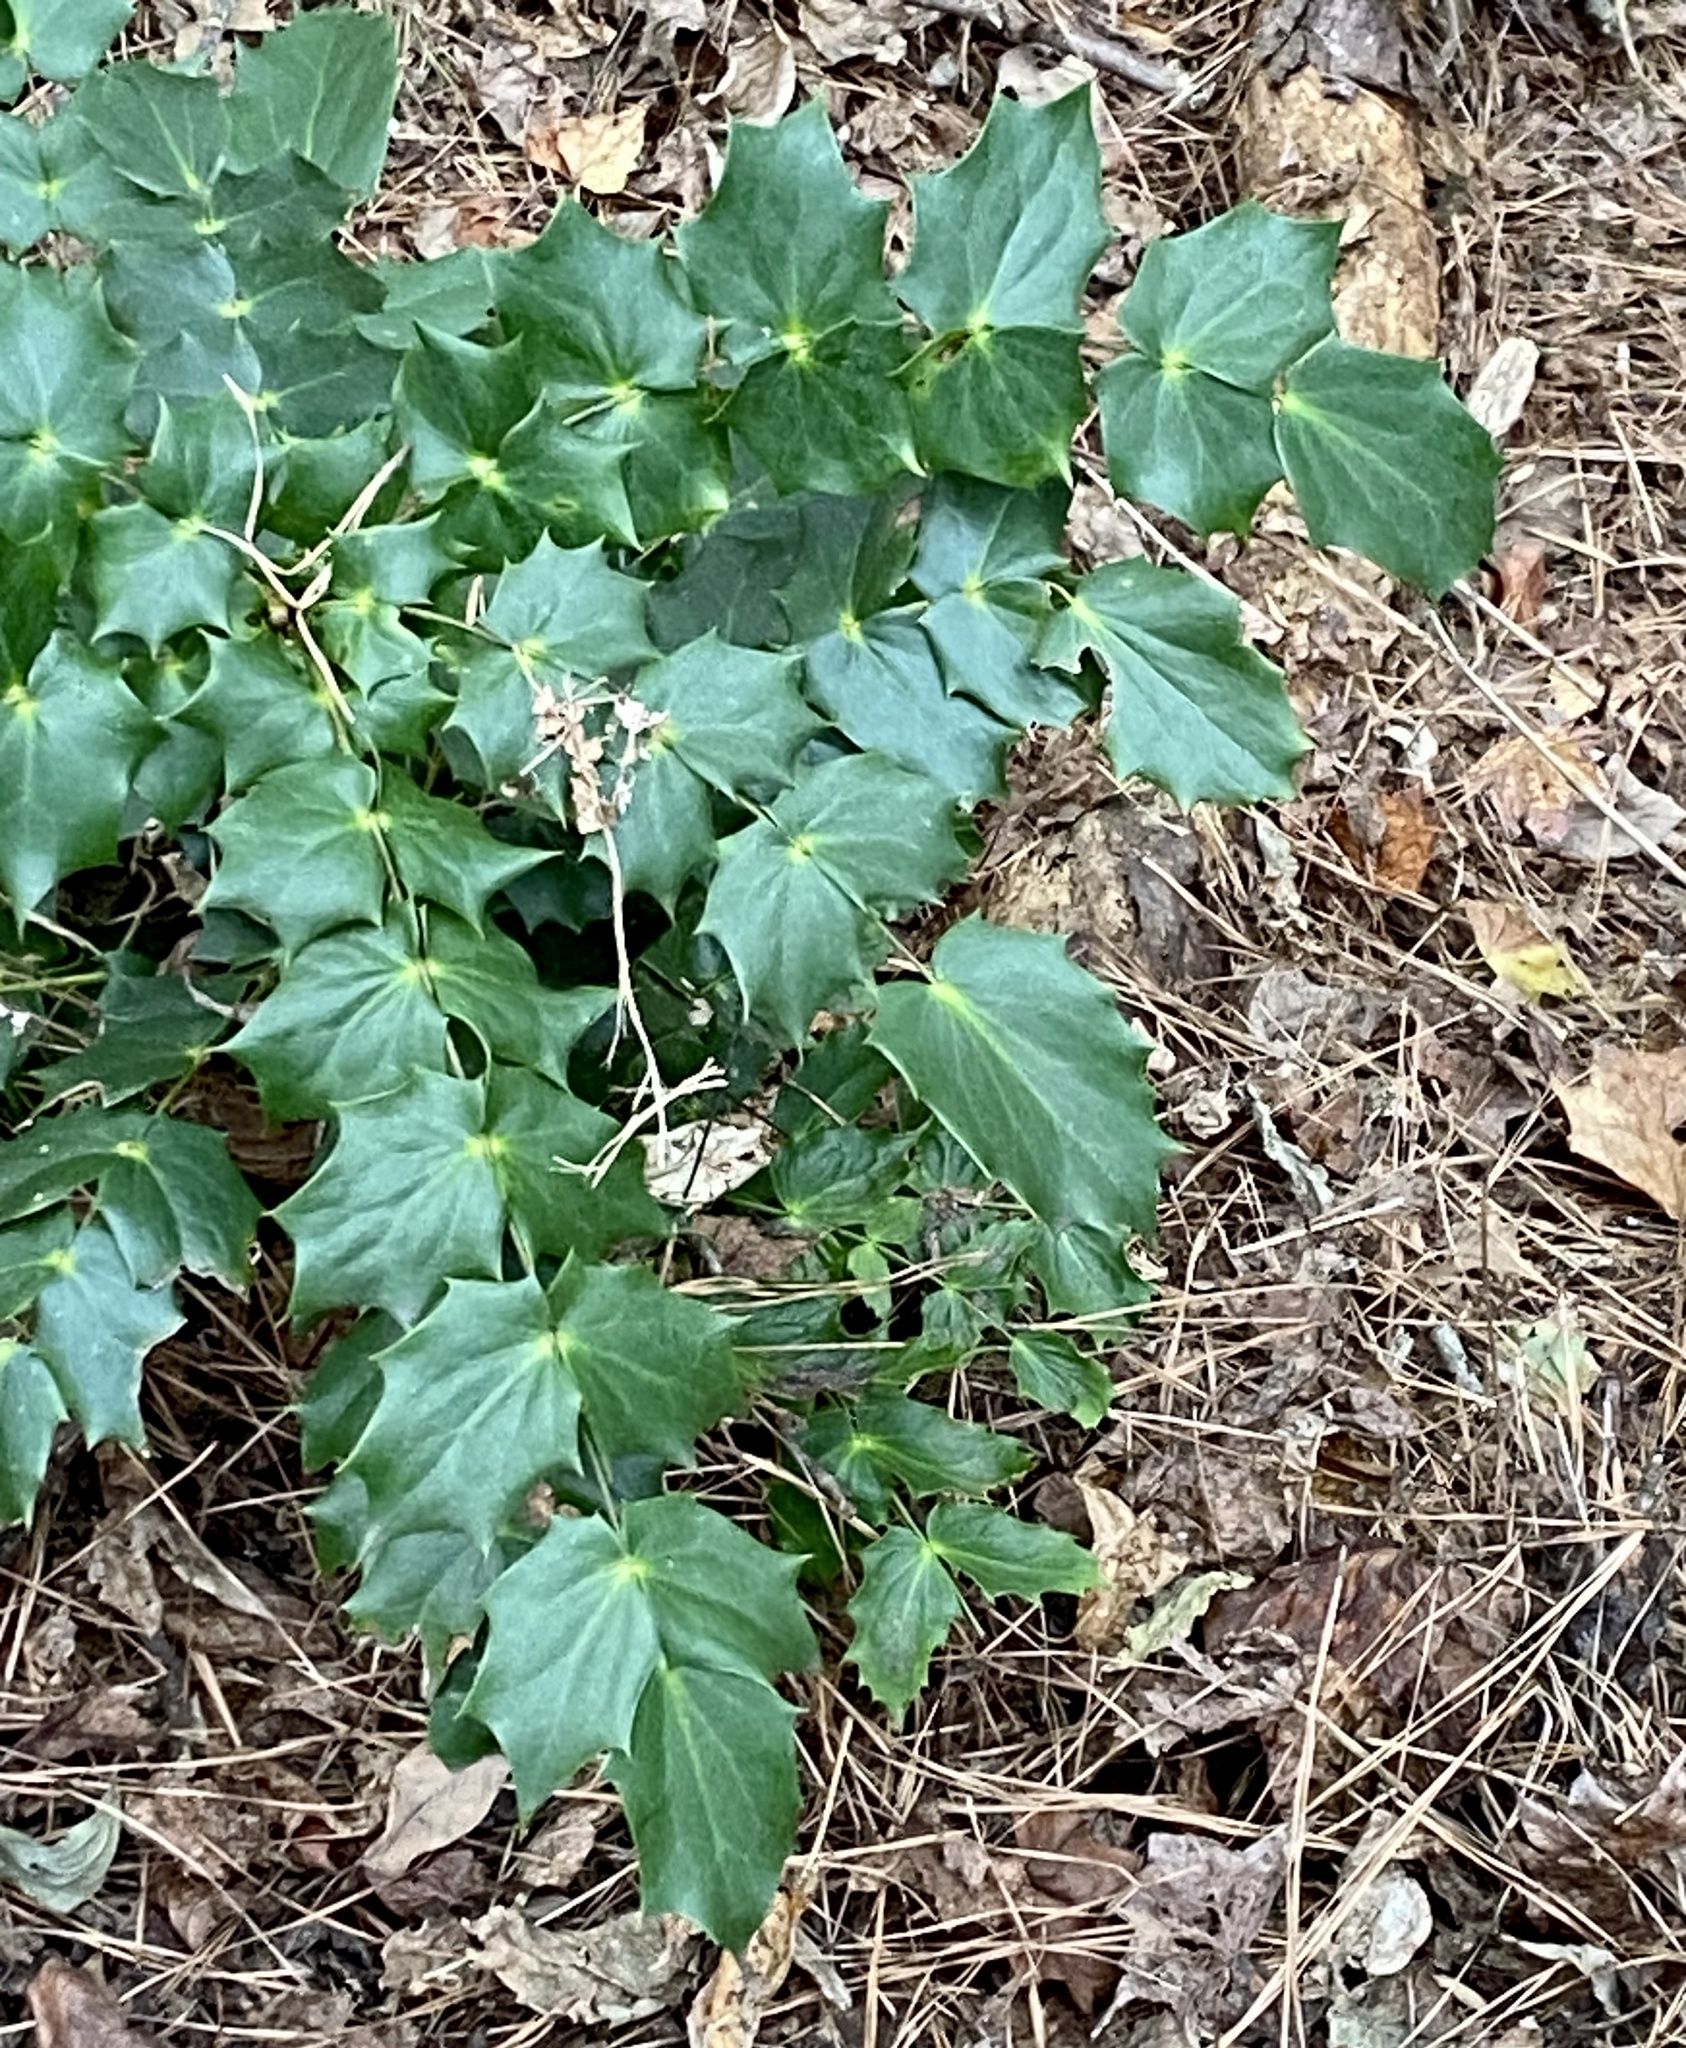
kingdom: Plantae
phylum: Tracheophyta
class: Magnoliopsida
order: Ranunculales
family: Berberidaceae
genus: Mahonia
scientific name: Mahonia bealei
